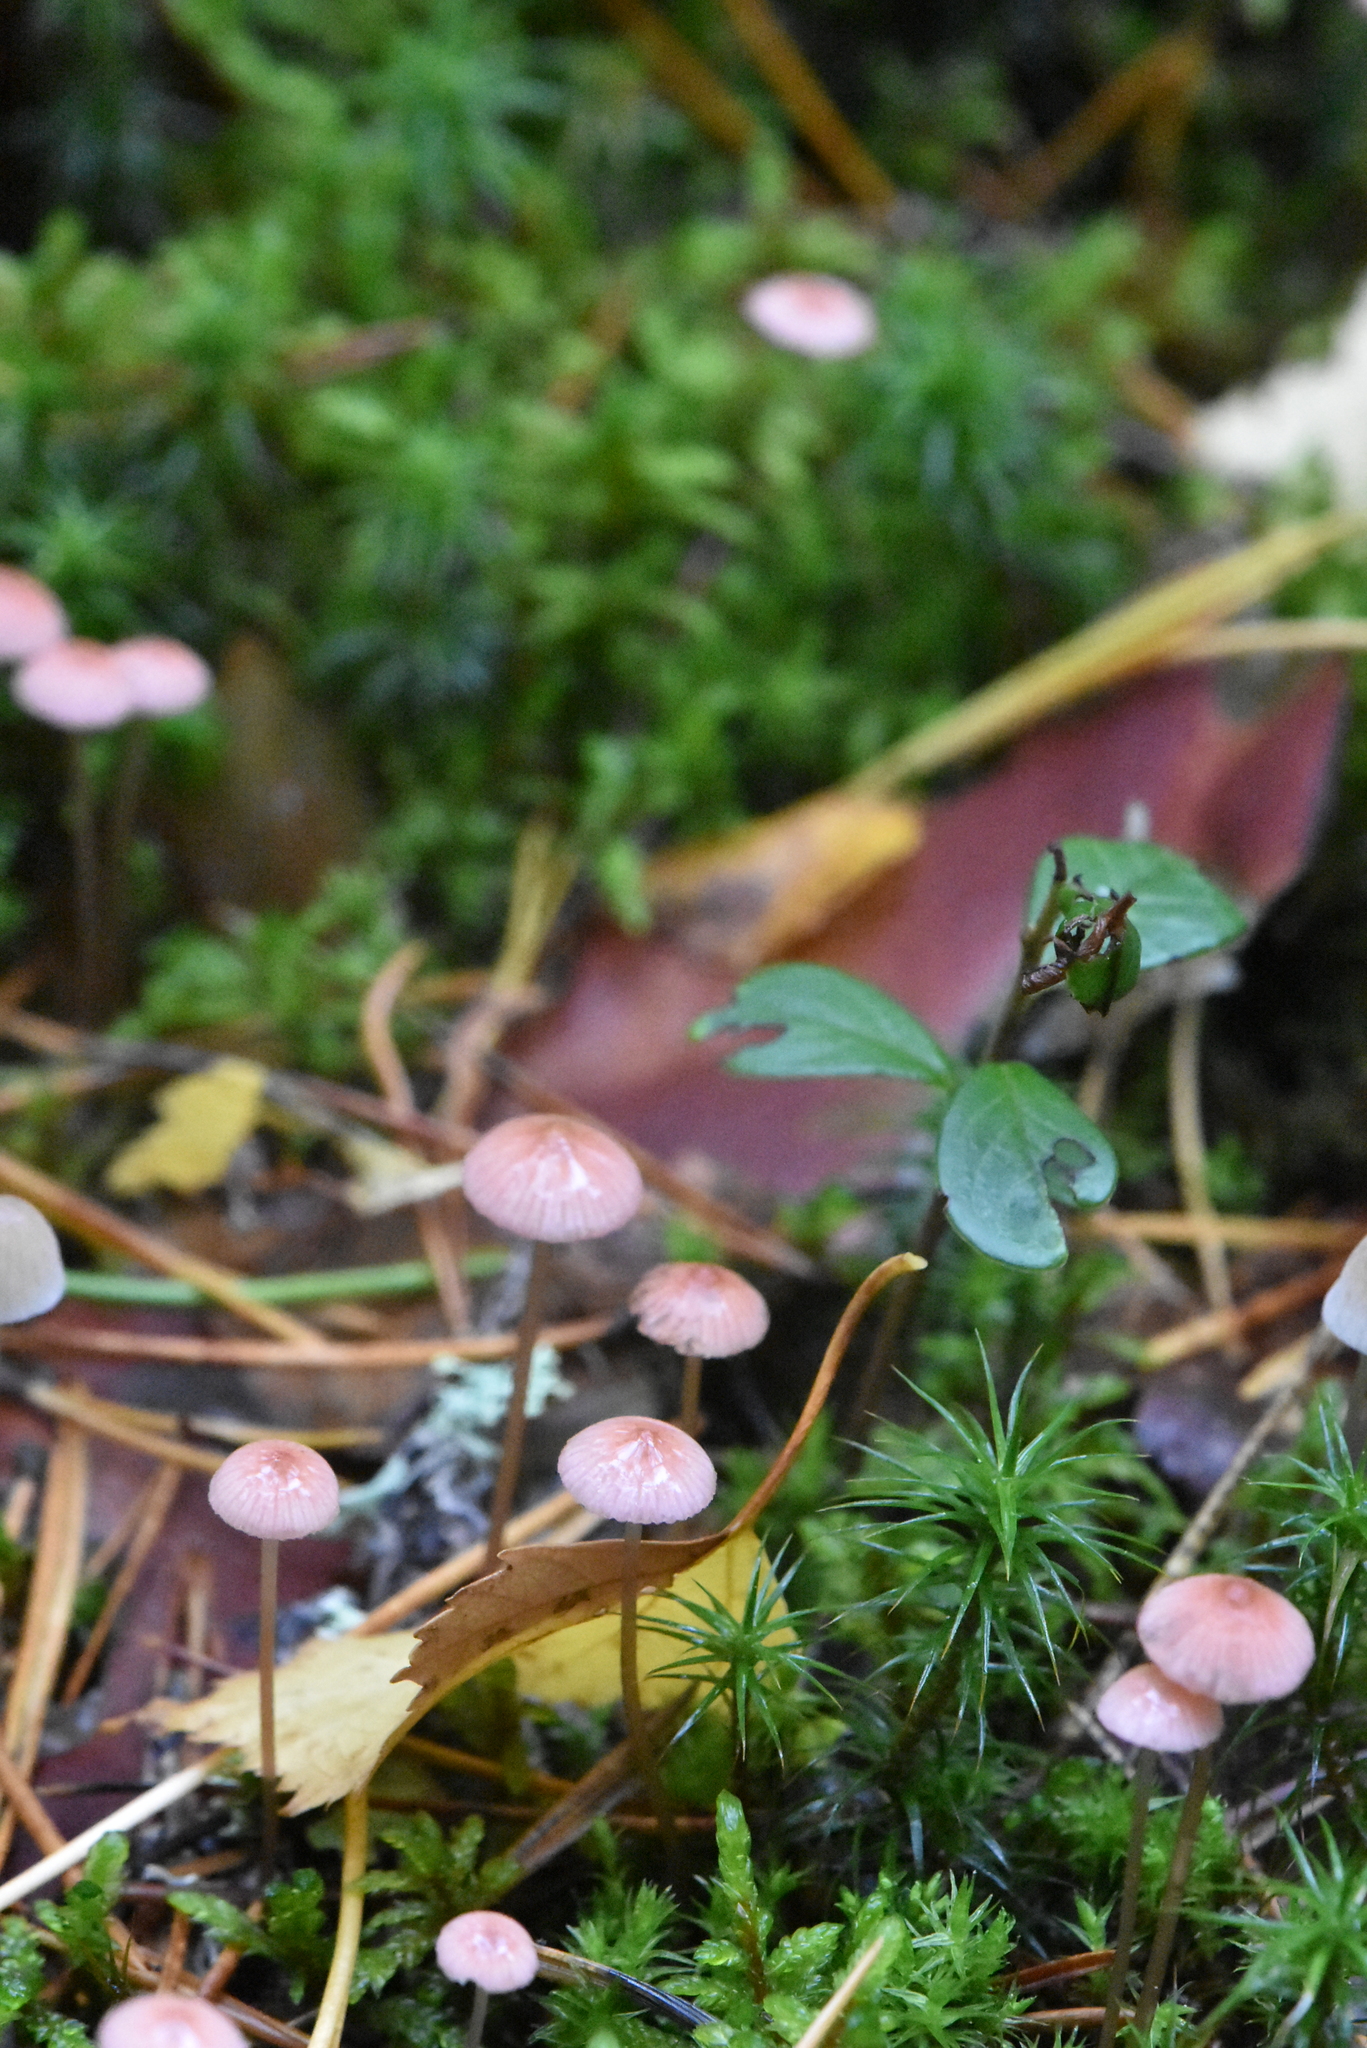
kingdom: Fungi
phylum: Basidiomycota
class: Agaricomycetes
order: Agaricales
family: Mycenaceae
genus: Mycena
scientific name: Mycena rosella
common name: Pink bonnet
